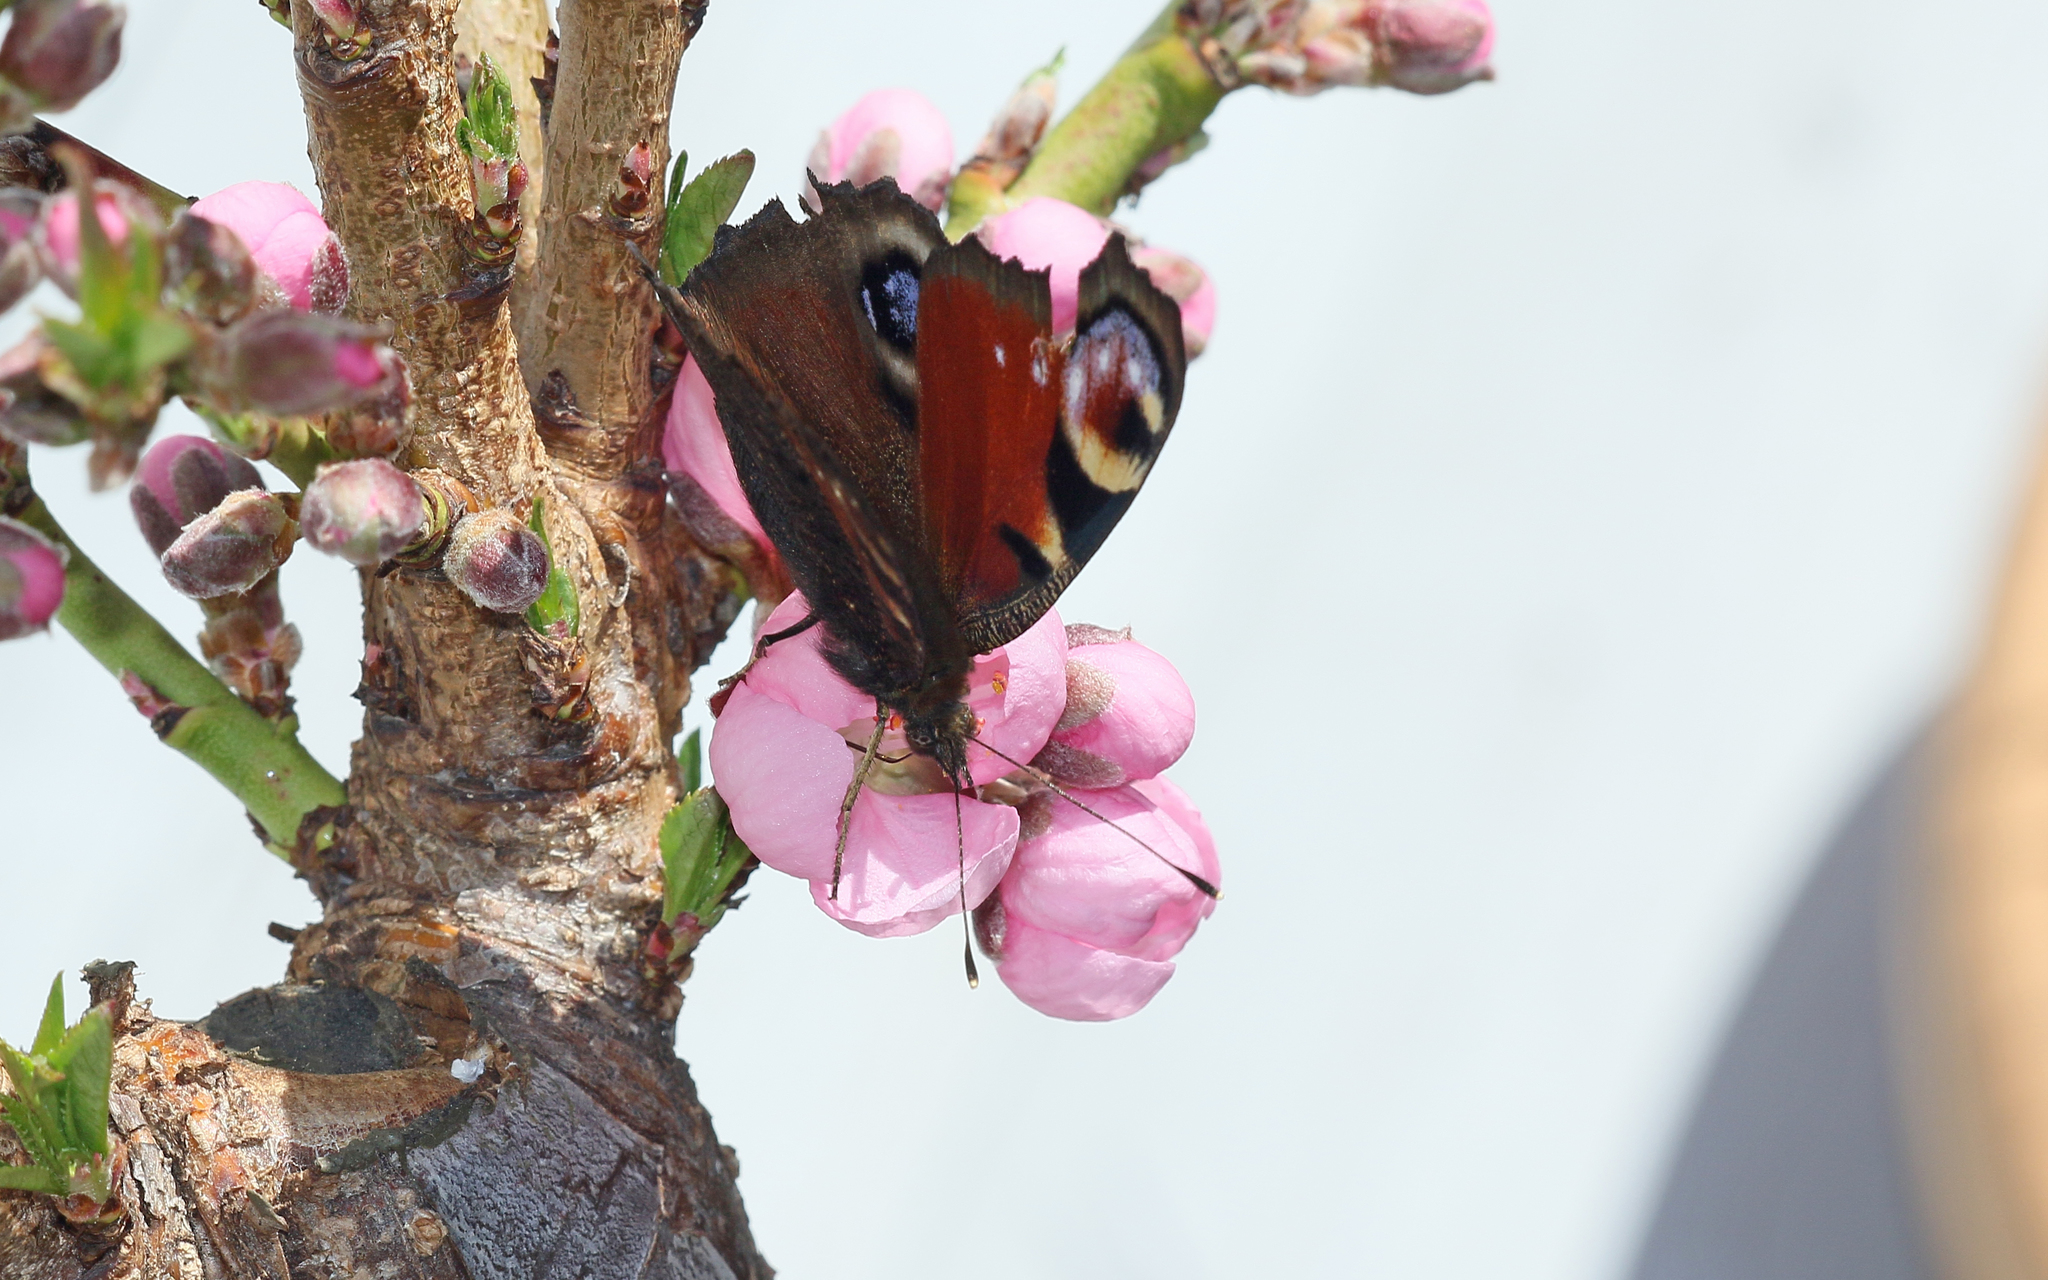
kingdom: Animalia
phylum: Arthropoda
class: Insecta
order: Lepidoptera
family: Nymphalidae
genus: Aglais
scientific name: Aglais io
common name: Peacock
